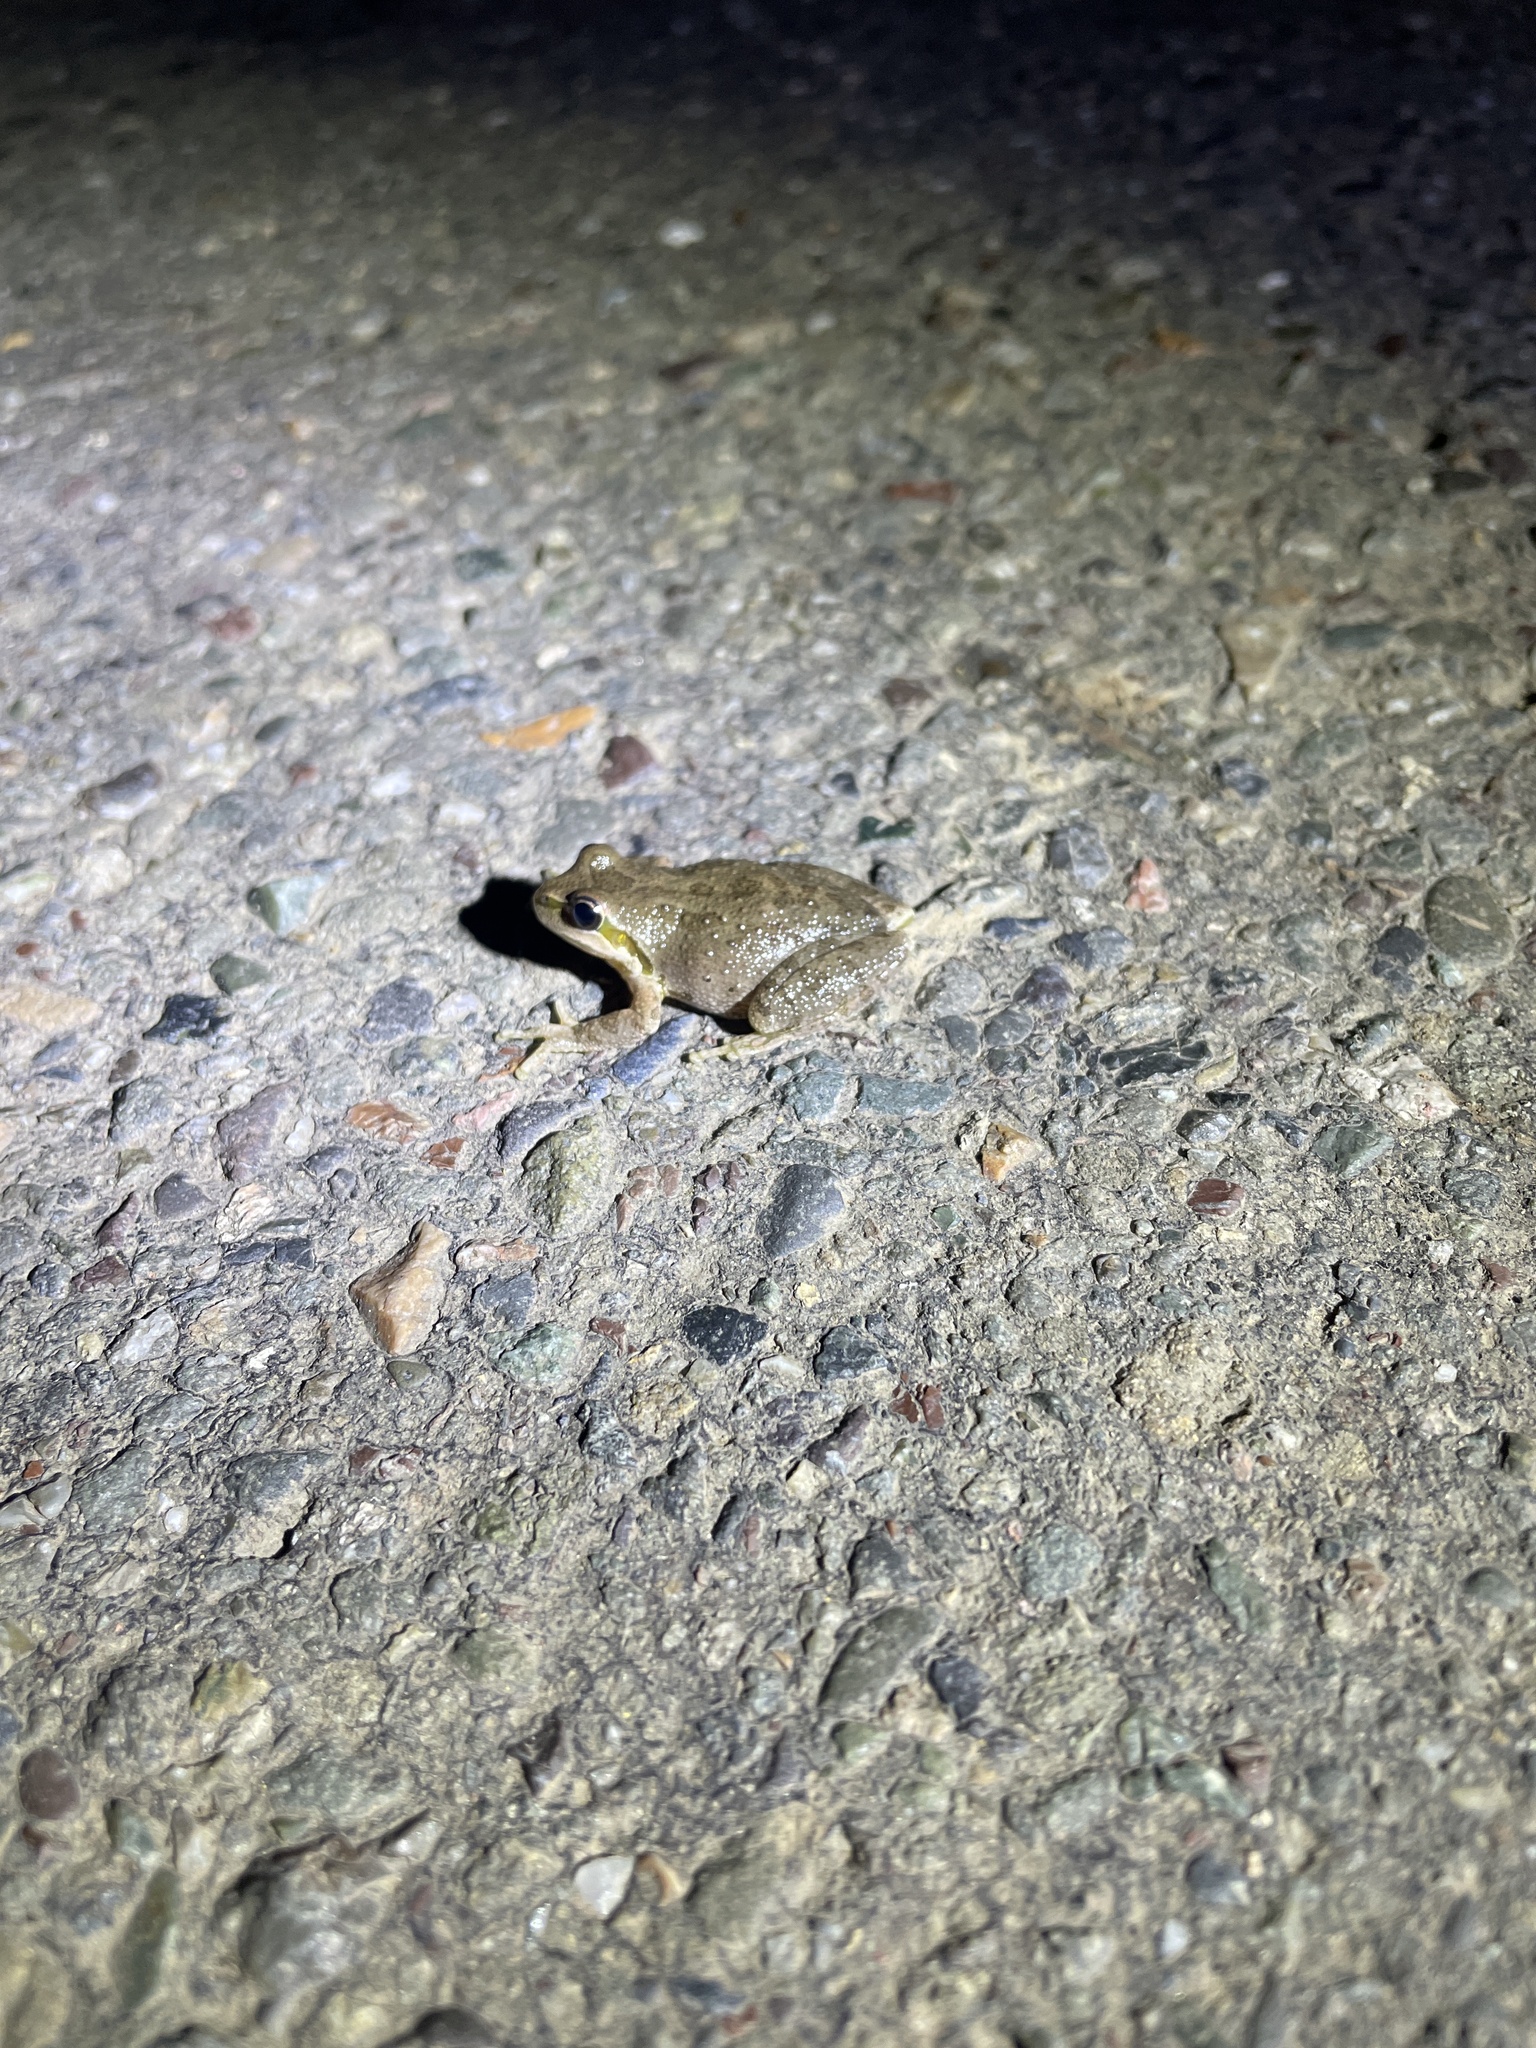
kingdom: Animalia
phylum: Chordata
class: Amphibia
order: Anura
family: Hylidae
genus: Pseudacris
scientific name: Pseudacris regilla
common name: Pacific chorus frog
